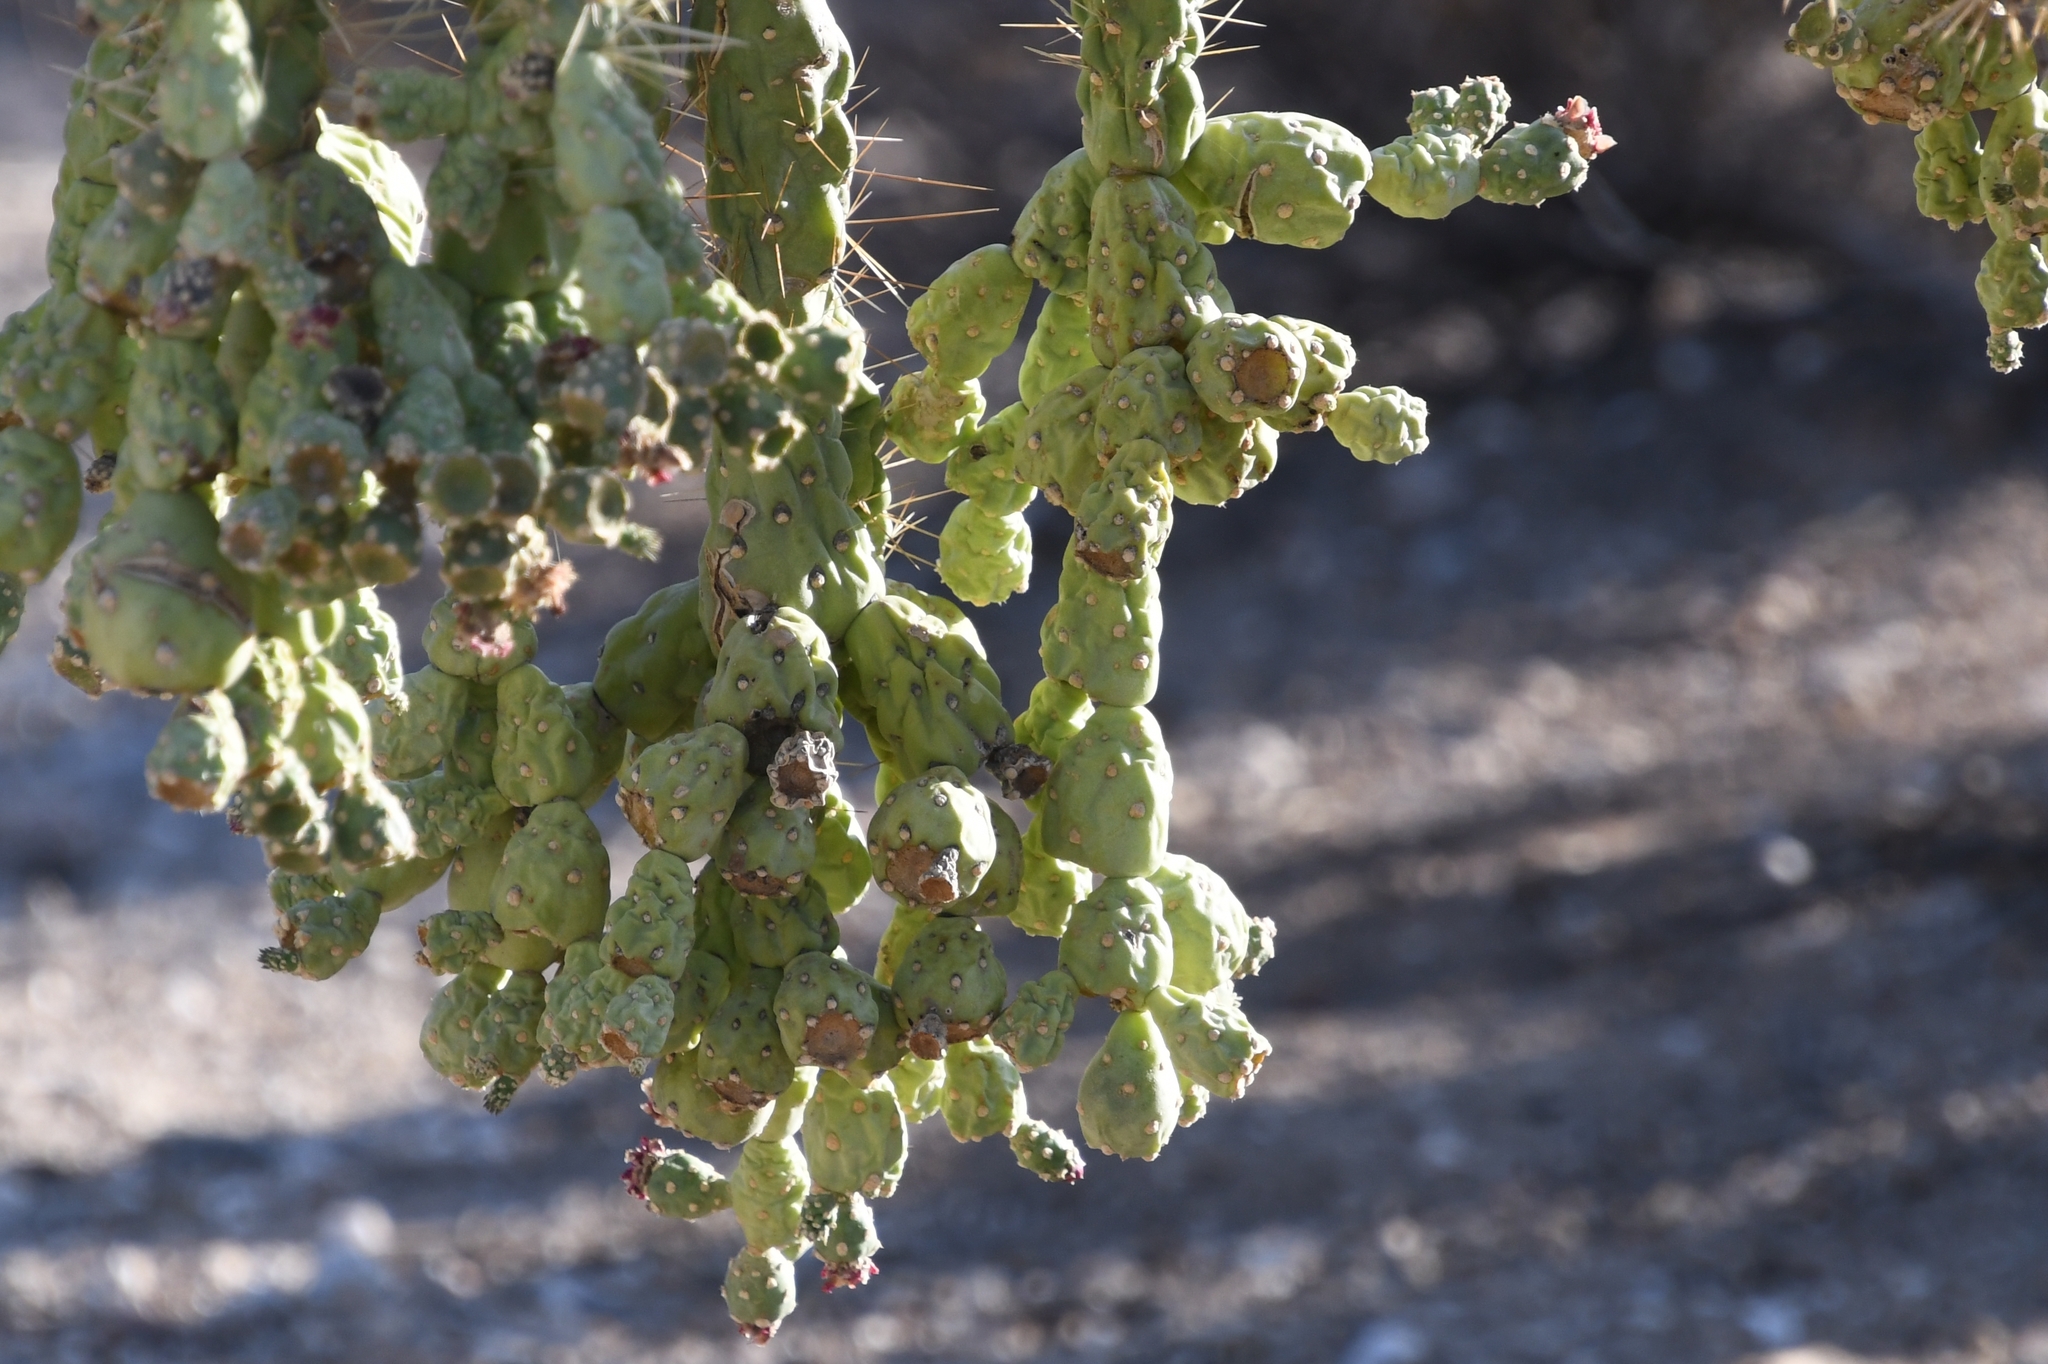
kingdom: Plantae
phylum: Tracheophyta
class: Magnoliopsida
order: Caryophyllales
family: Cactaceae
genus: Cylindropuntia
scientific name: Cylindropuntia fosbergii
